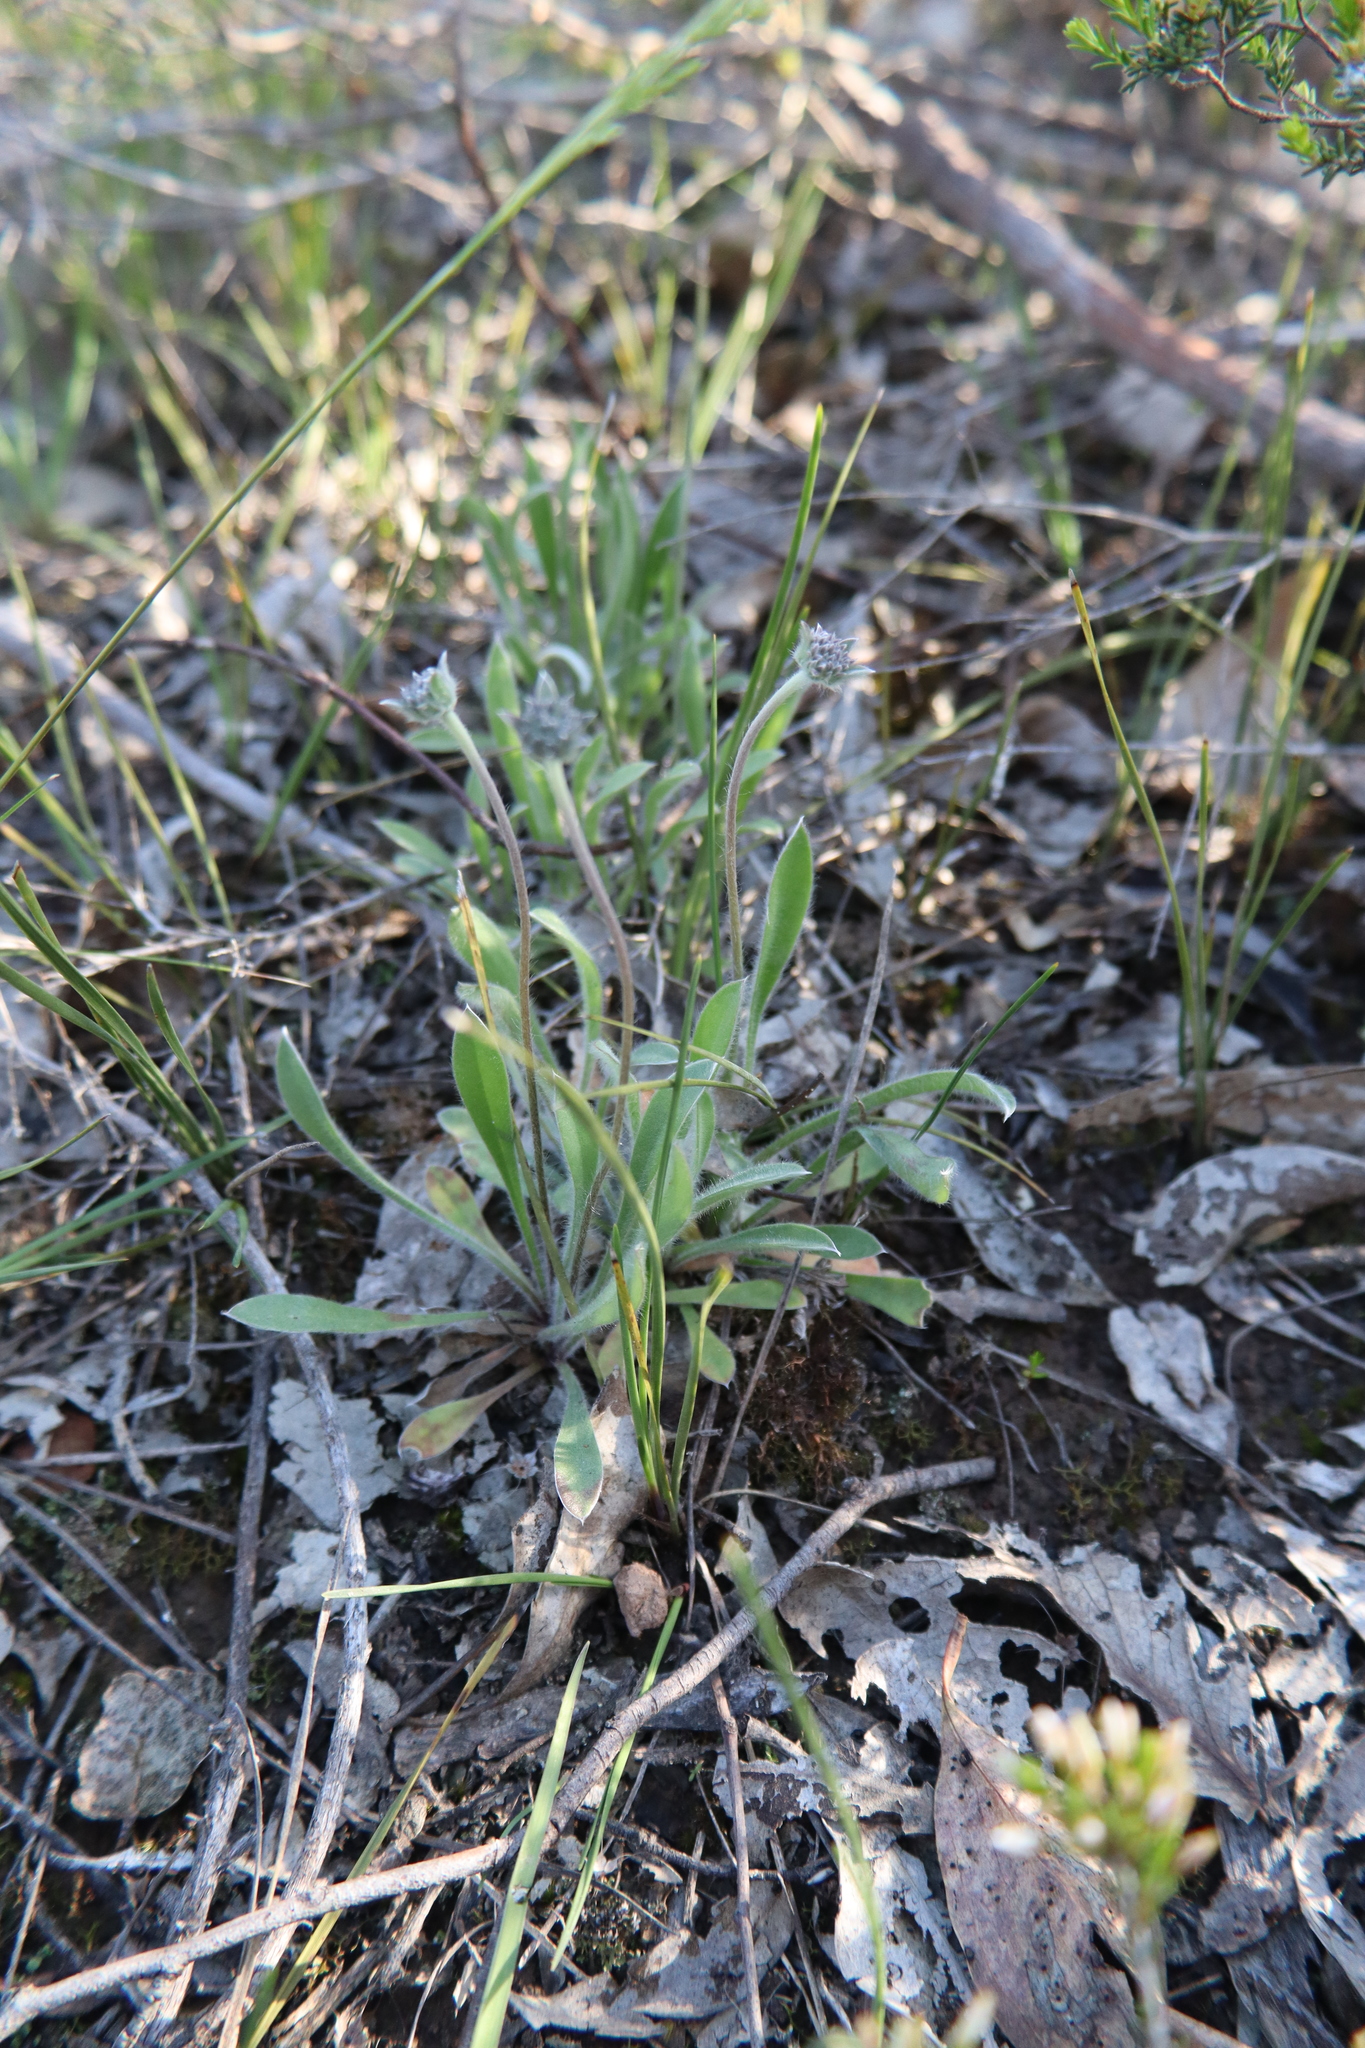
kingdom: Plantae
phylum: Tracheophyta
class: Magnoliopsida
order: Asterales
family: Goodeniaceae
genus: Brunonia
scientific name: Brunonia australis
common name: Blue pincushion
